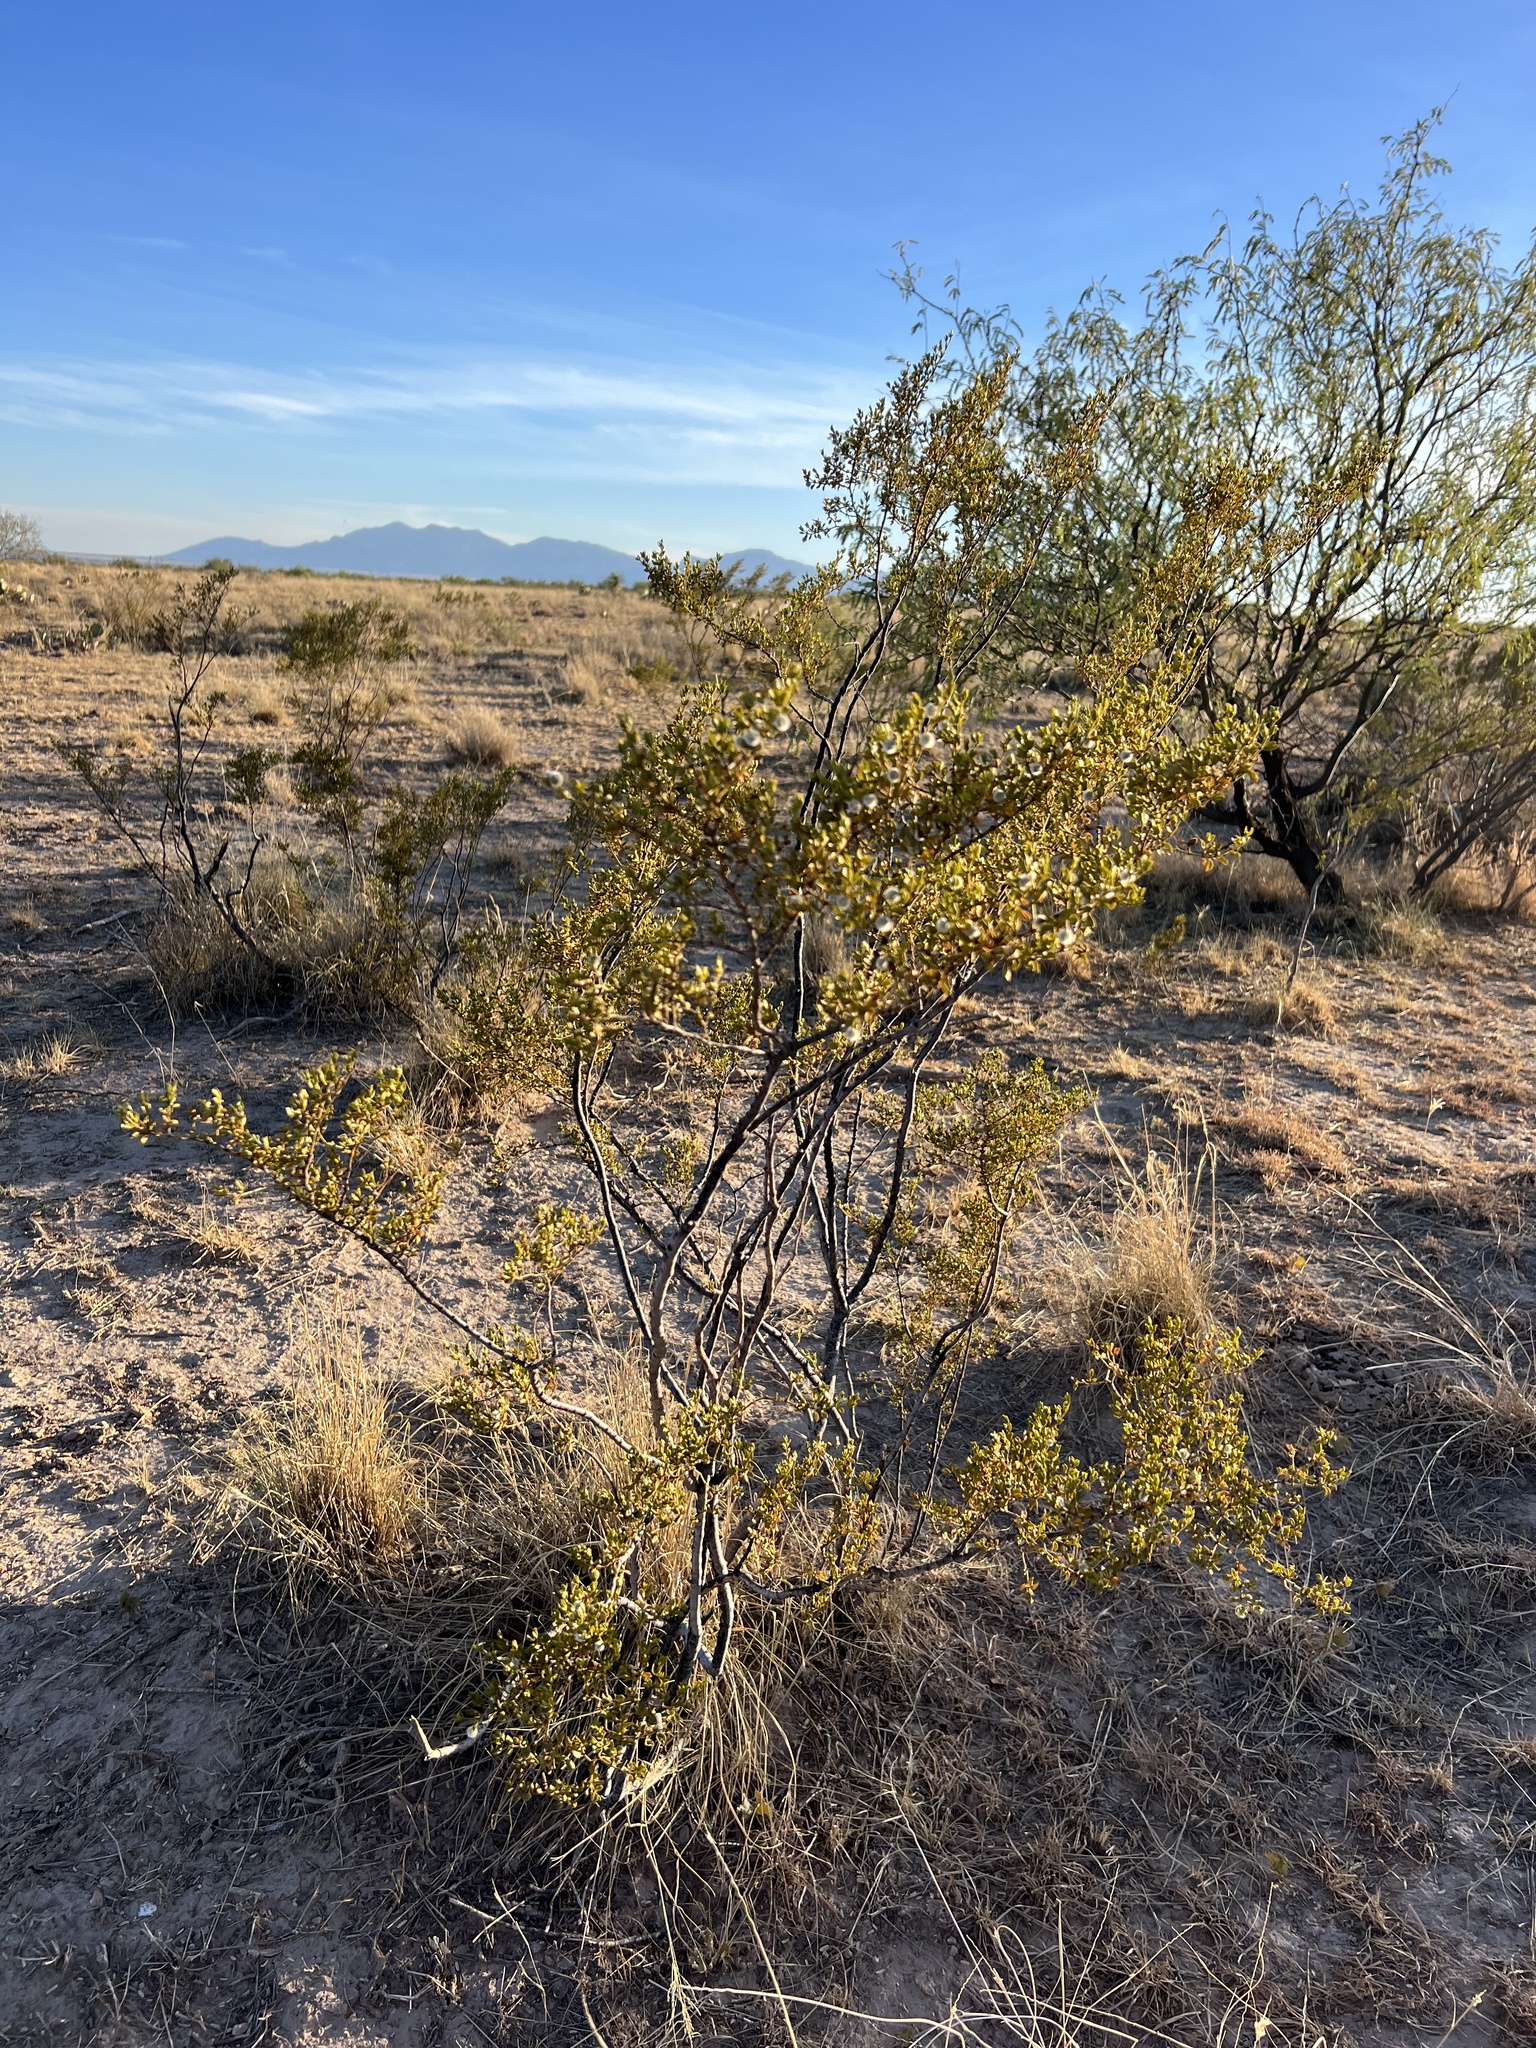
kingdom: Plantae
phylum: Tracheophyta
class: Magnoliopsida
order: Zygophyllales
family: Zygophyllaceae
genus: Larrea
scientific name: Larrea tridentata
